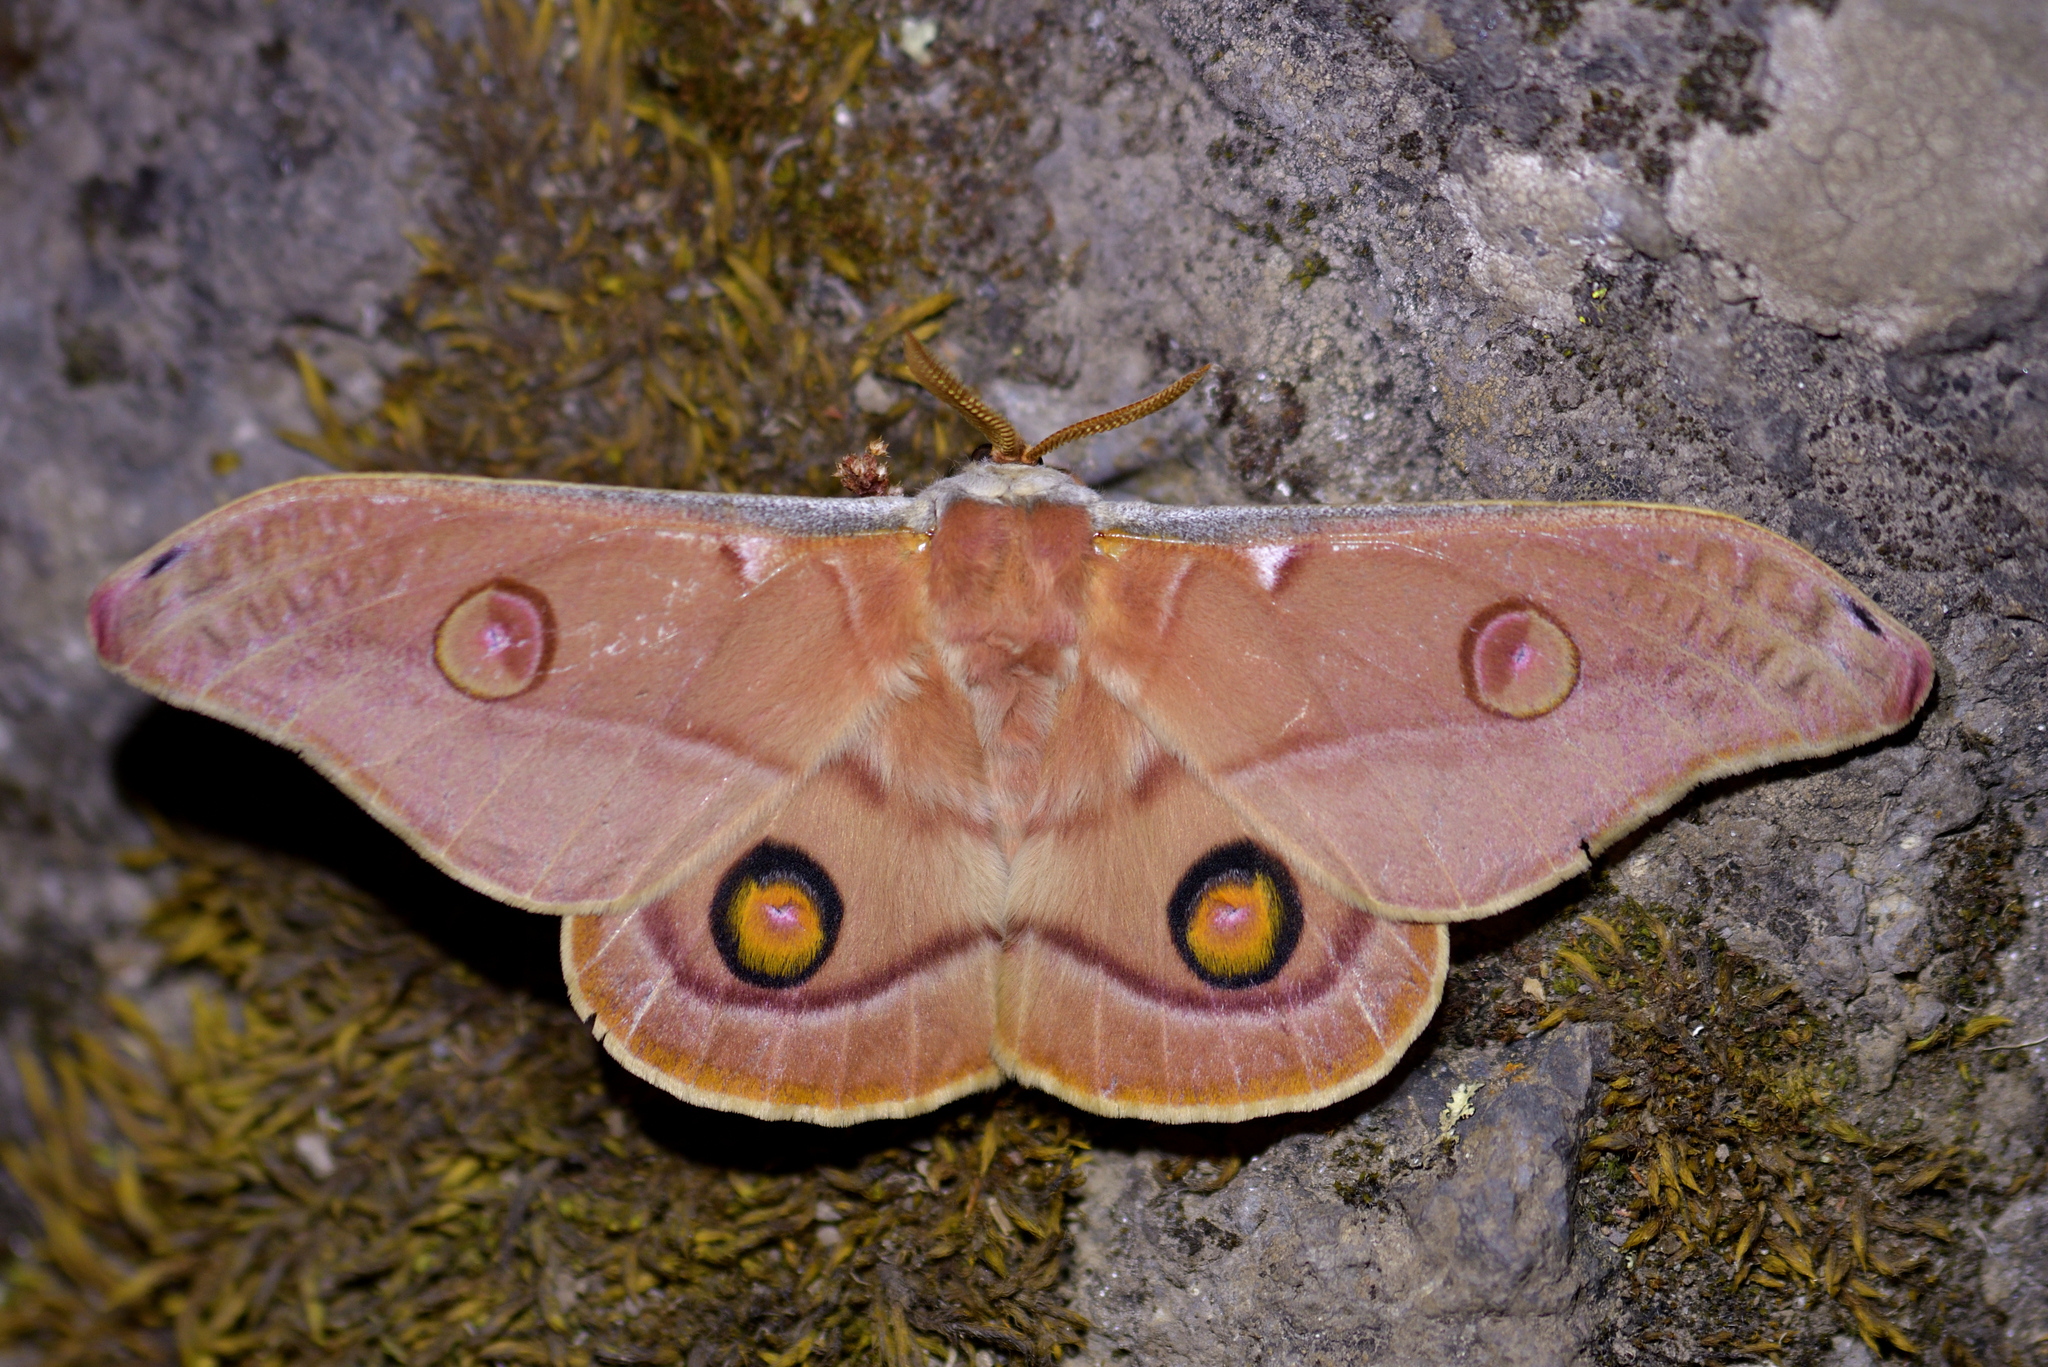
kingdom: Animalia
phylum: Arthropoda
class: Insecta
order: Lepidoptera
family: Saturniidae
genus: Opodiphthera
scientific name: Opodiphthera
